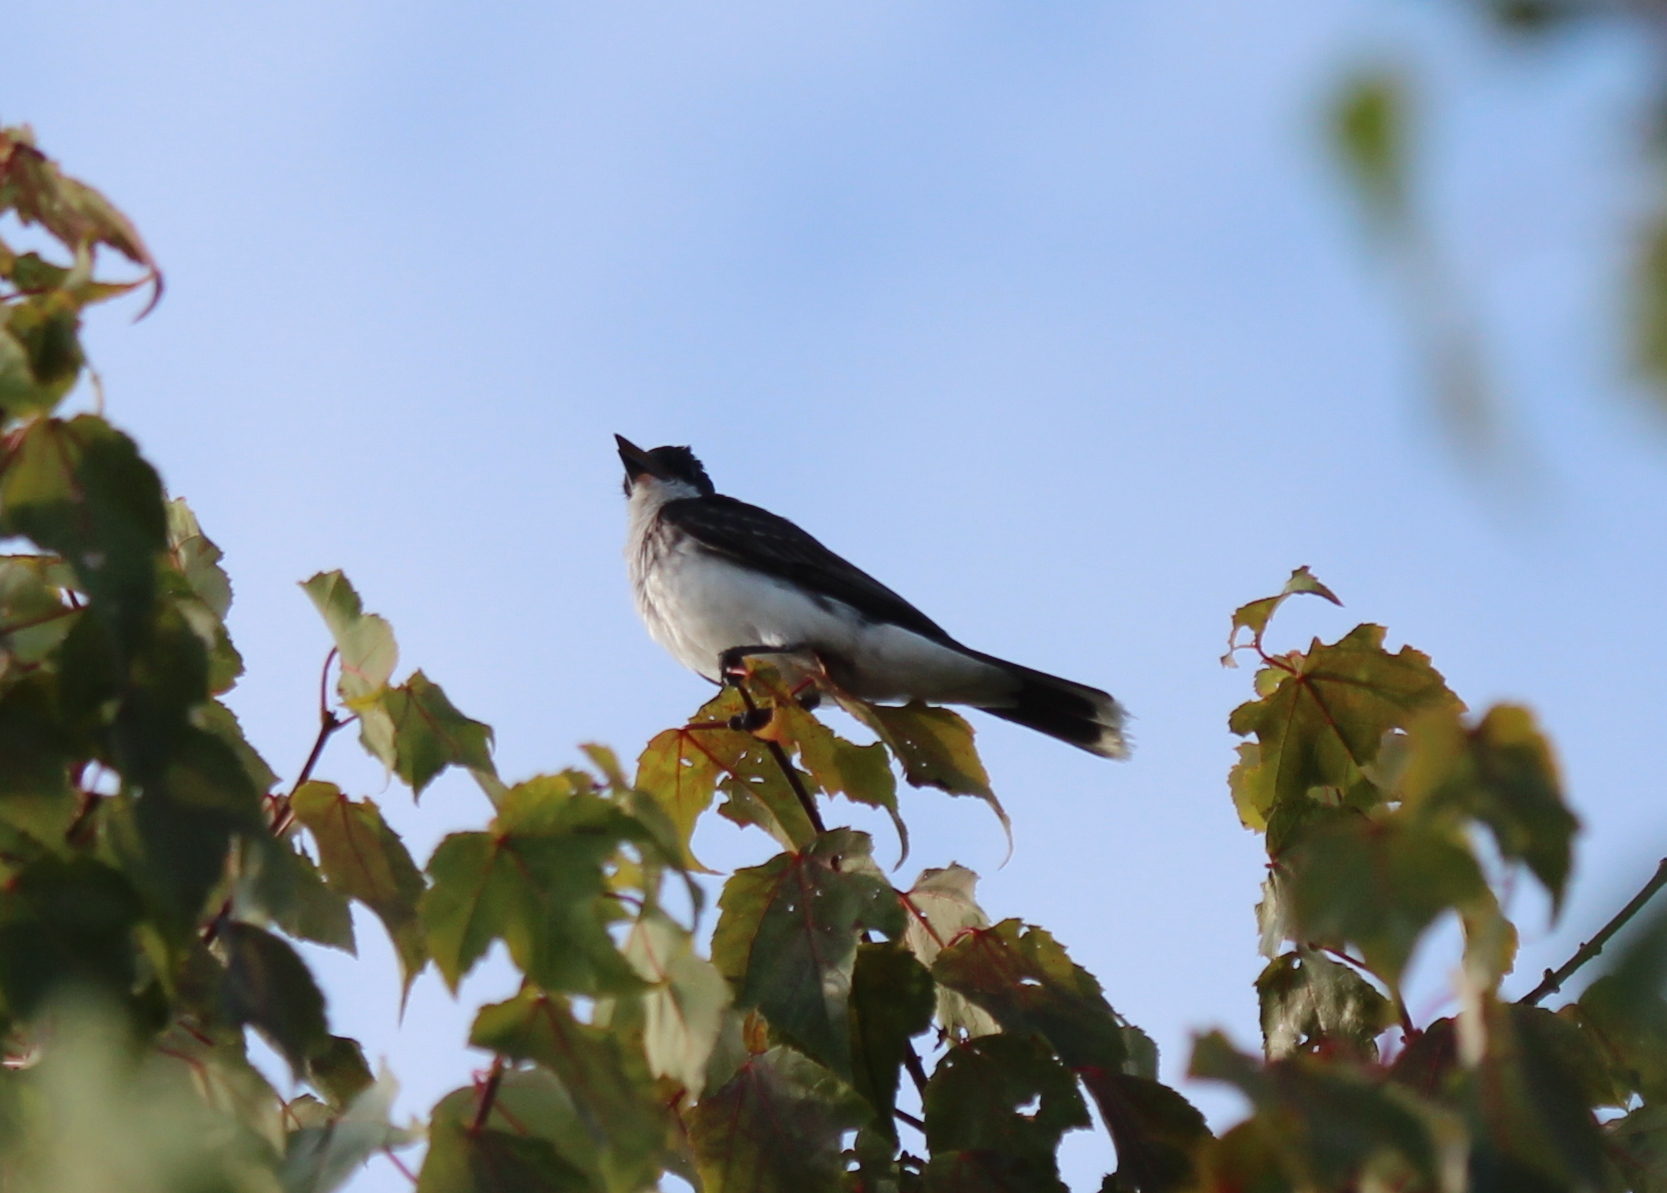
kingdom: Animalia
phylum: Chordata
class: Aves
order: Passeriformes
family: Tyrannidae
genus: Tyrannus
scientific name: Tyrannus tyrannus
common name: Eastern kingbird
